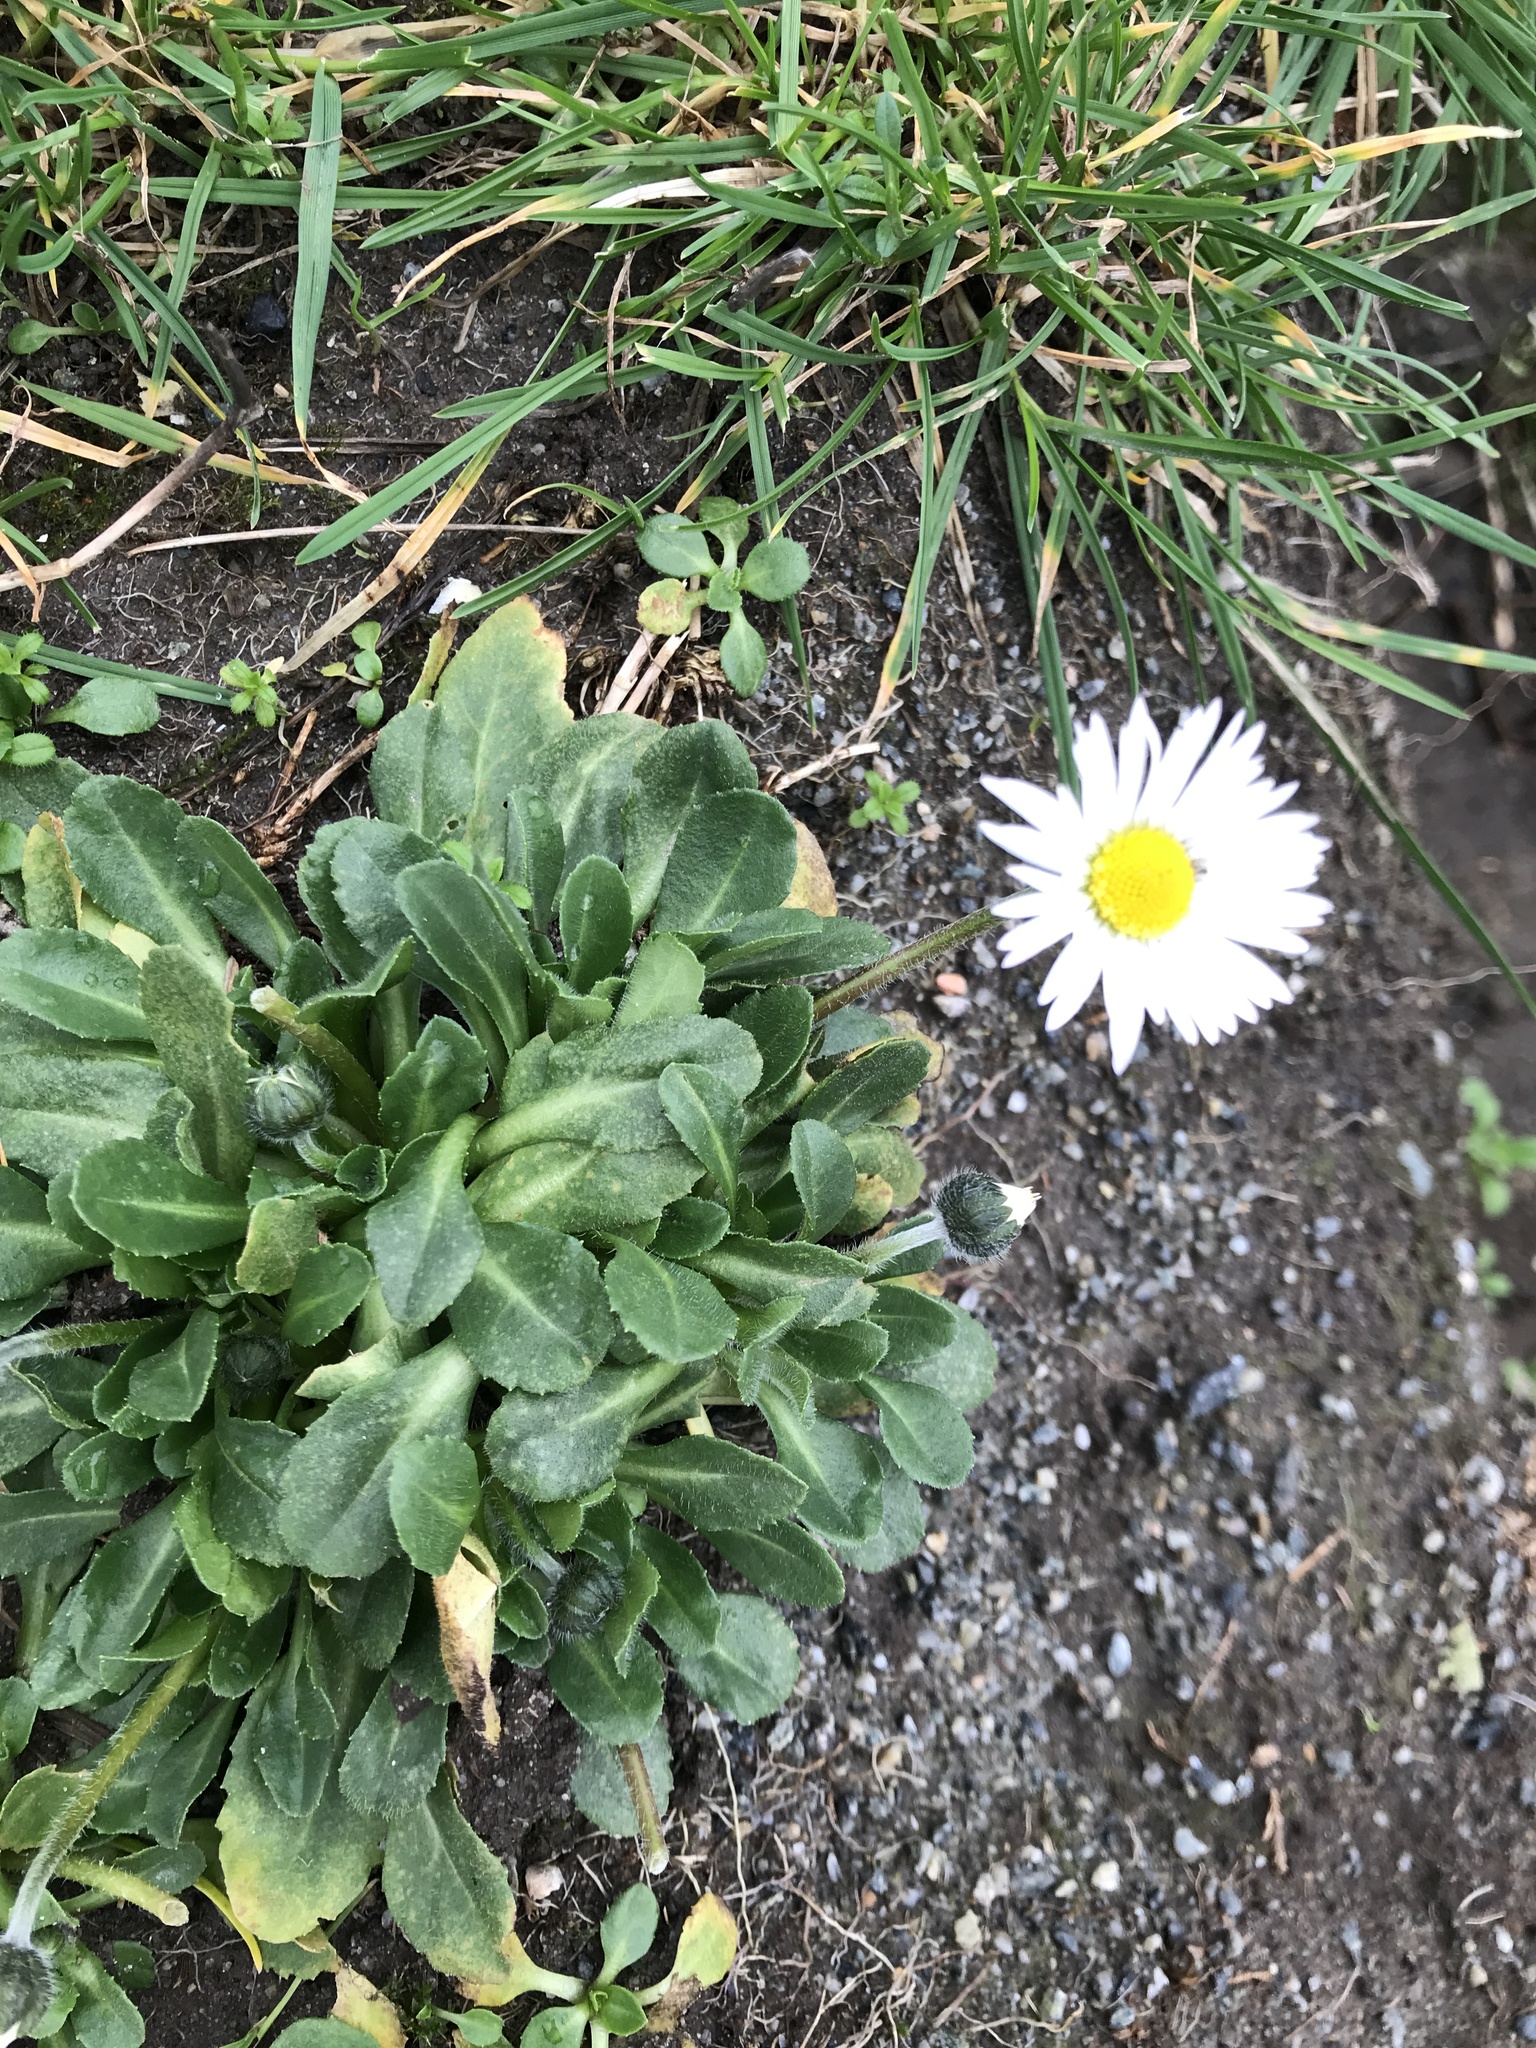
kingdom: Plantae
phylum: Tracheophyta
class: Magnoliopsida
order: Asterales
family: Asteraceae
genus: Bellis
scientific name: Bellis perennis
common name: Lawndaisy
